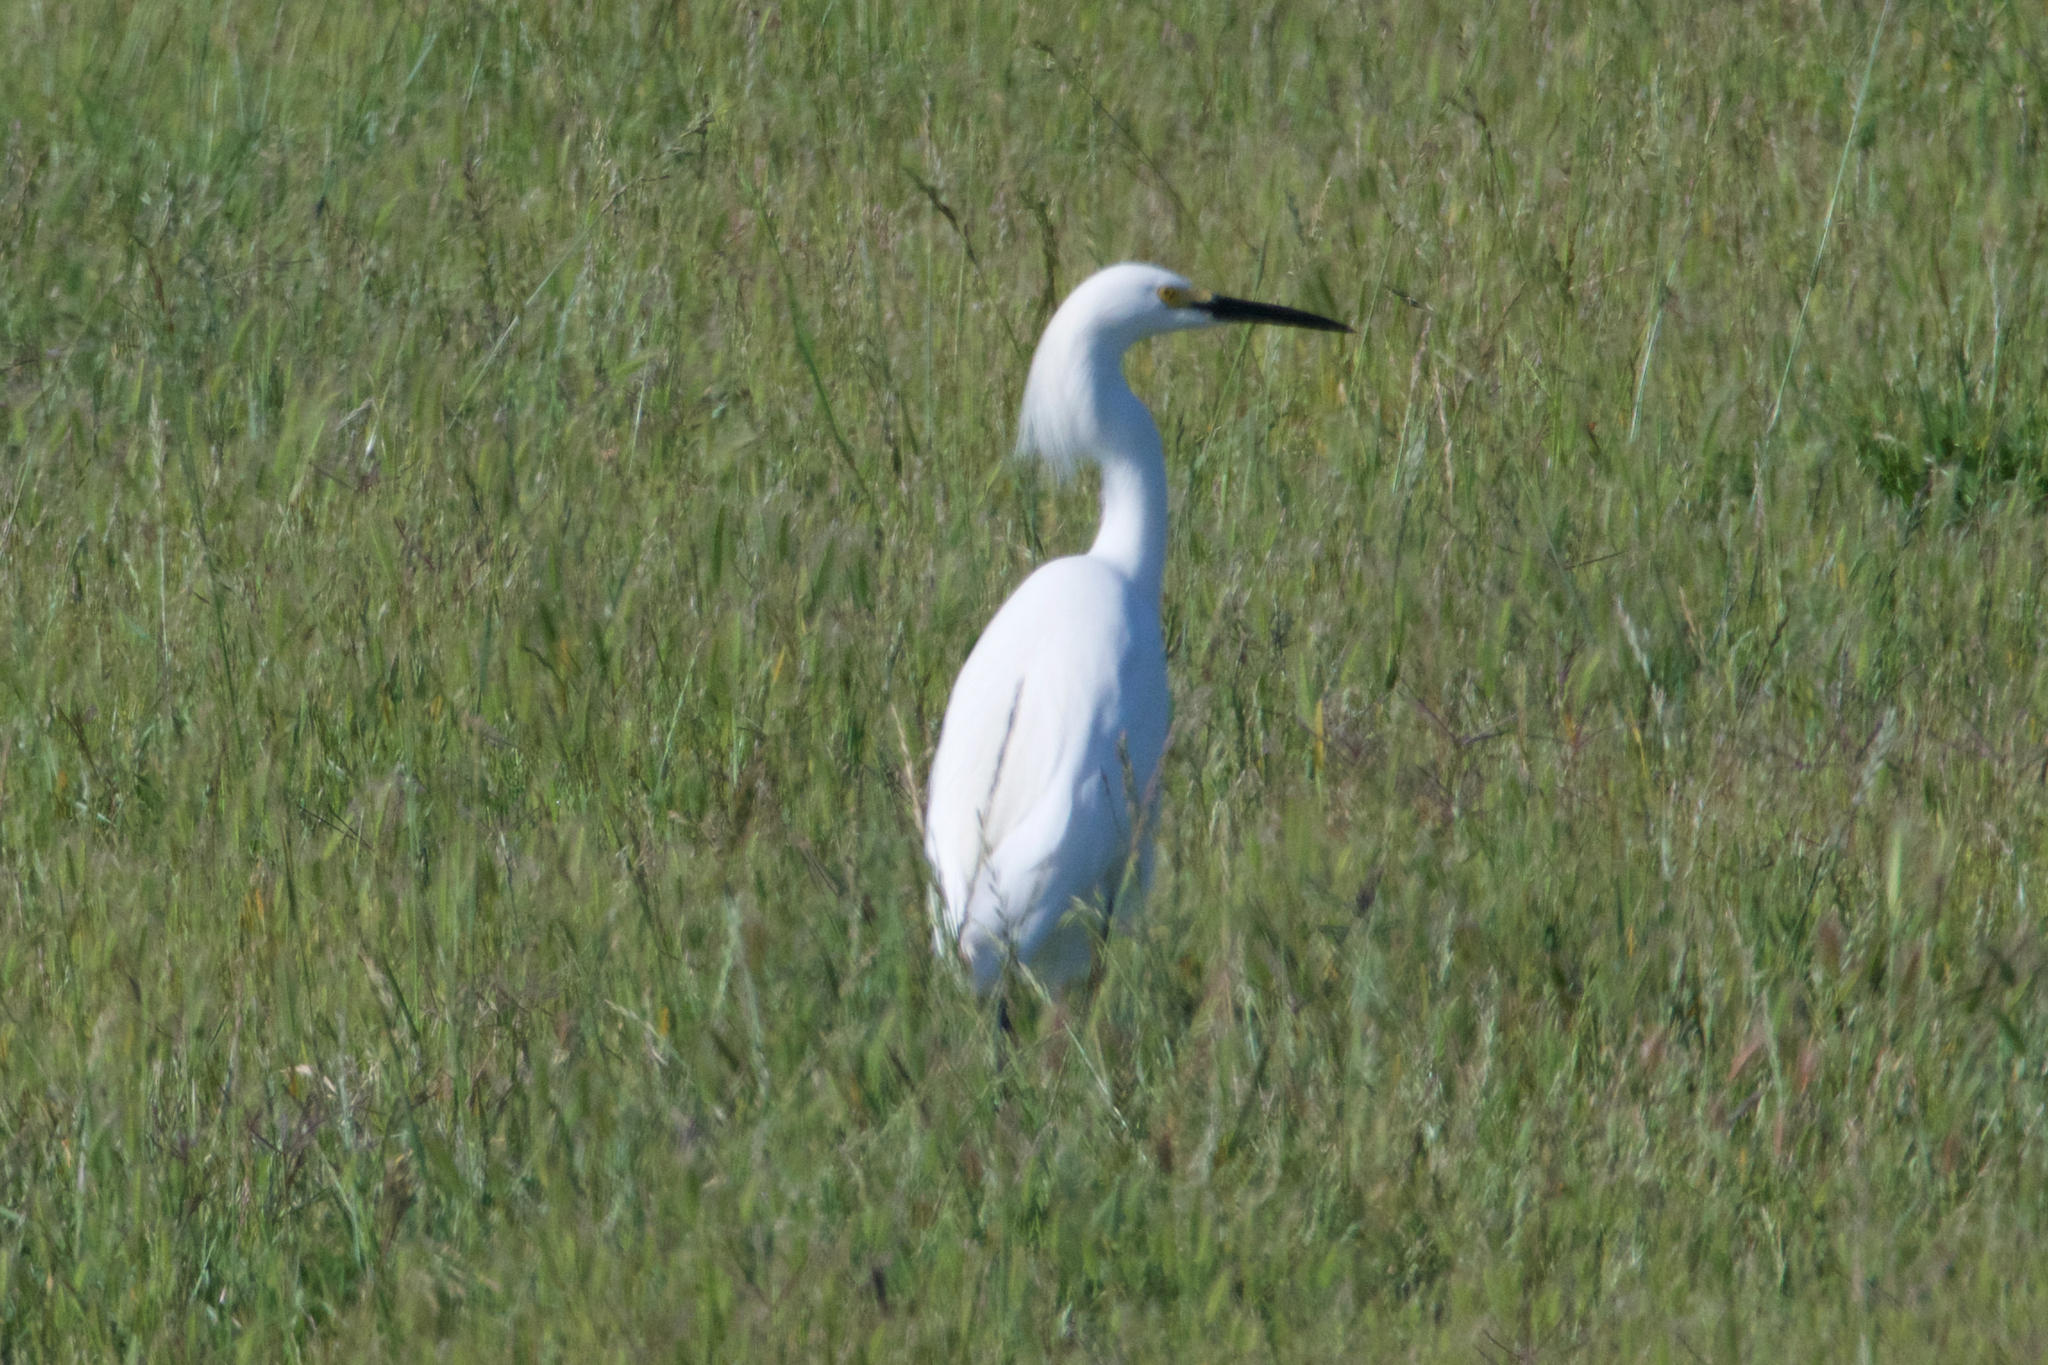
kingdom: Animalia
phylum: Chordata
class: Aves
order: Pelecaniformes
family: Ardeidae
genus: Egretta
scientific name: Egretta thula
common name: Snowy egret
